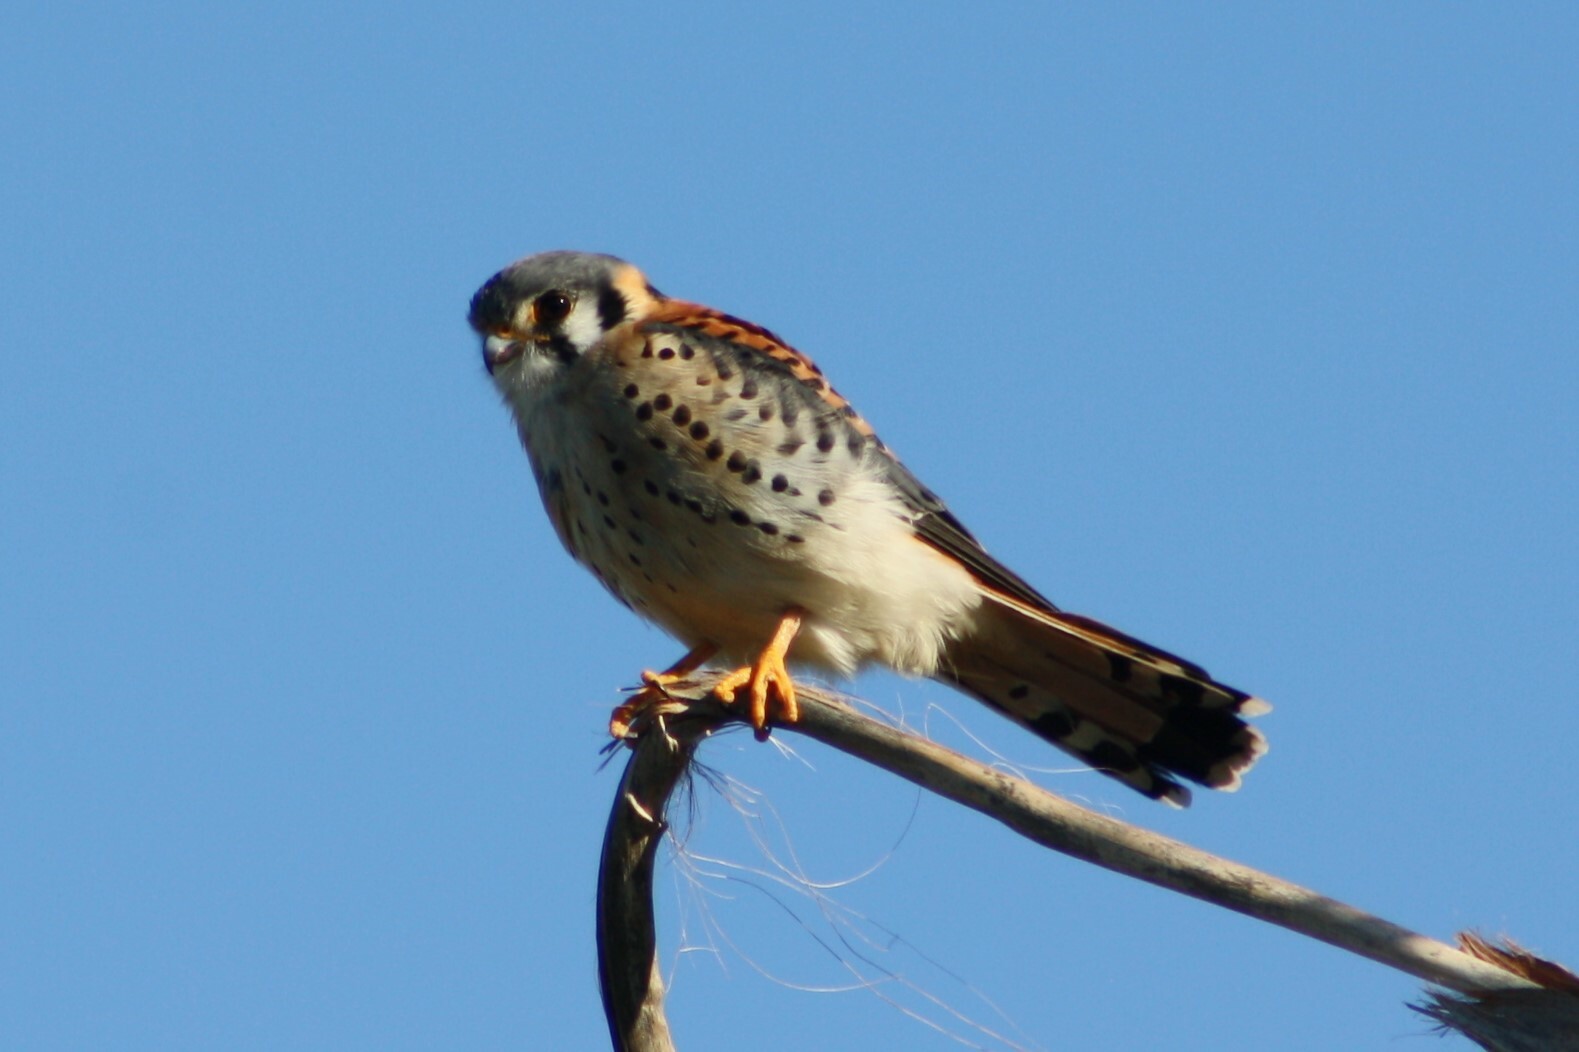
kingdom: Animalia
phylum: Chordata
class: Aves
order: Falconiformes
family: Falconidae
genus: Falco
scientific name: Falco sparverius
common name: American kestrel
